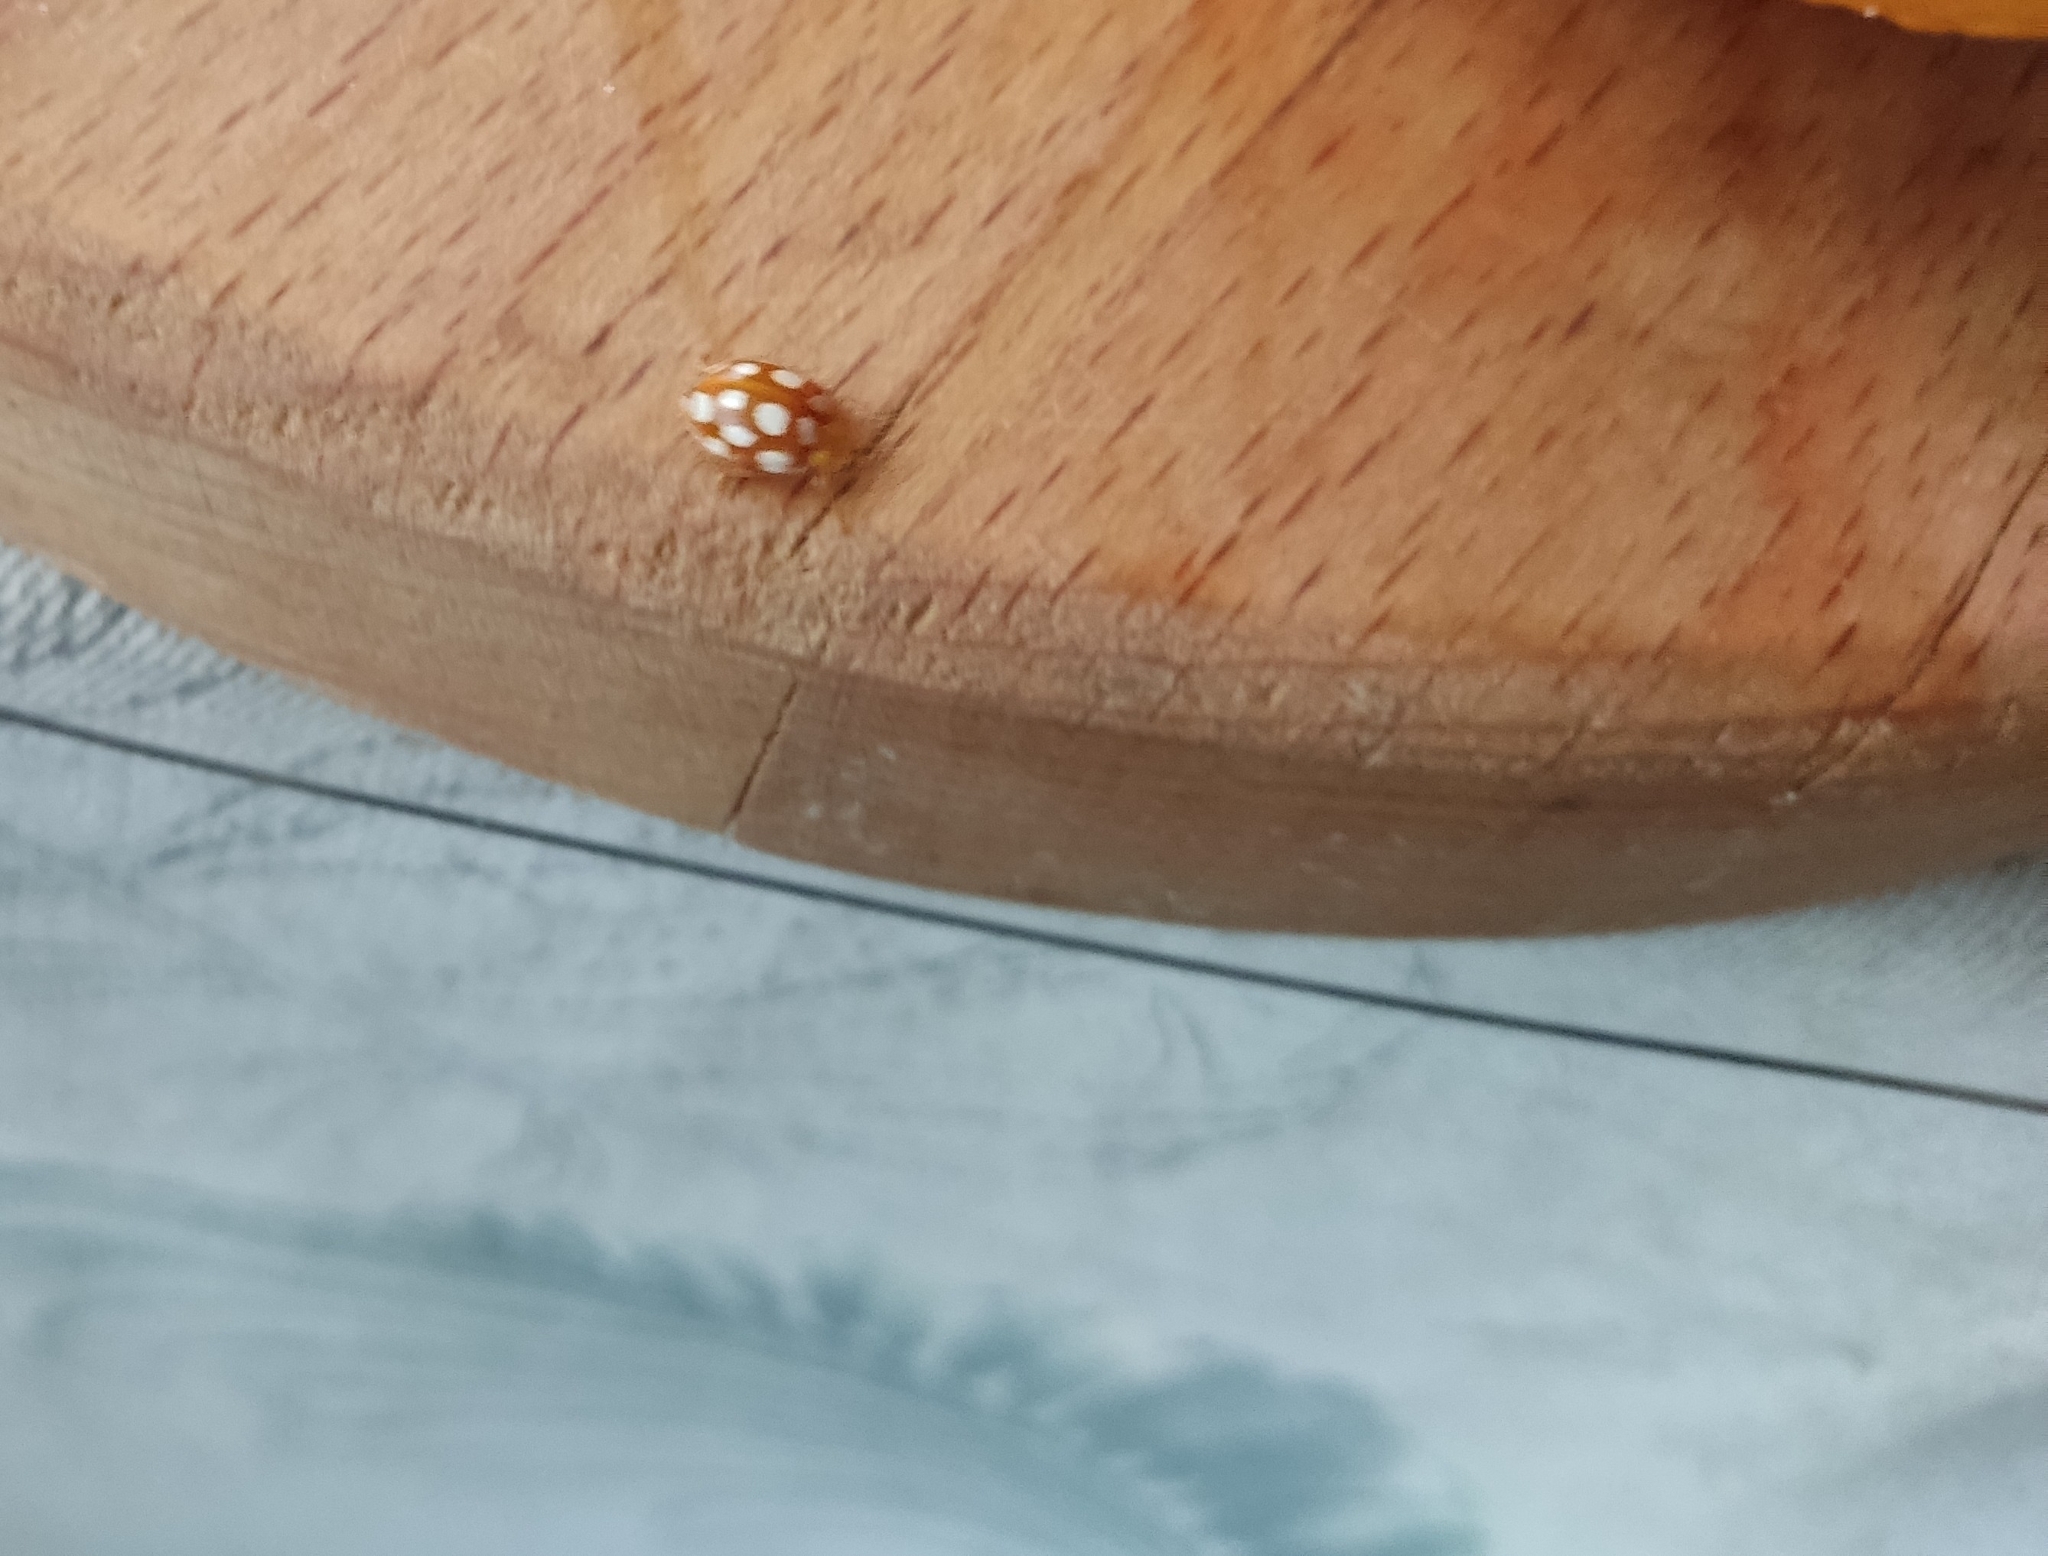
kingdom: Animalia
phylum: Arthropoda
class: Insecta
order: Coleoptera
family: Coccinellidae
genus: Halyzia
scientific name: Halyzia sedecimguttata
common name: Orange ladybird
